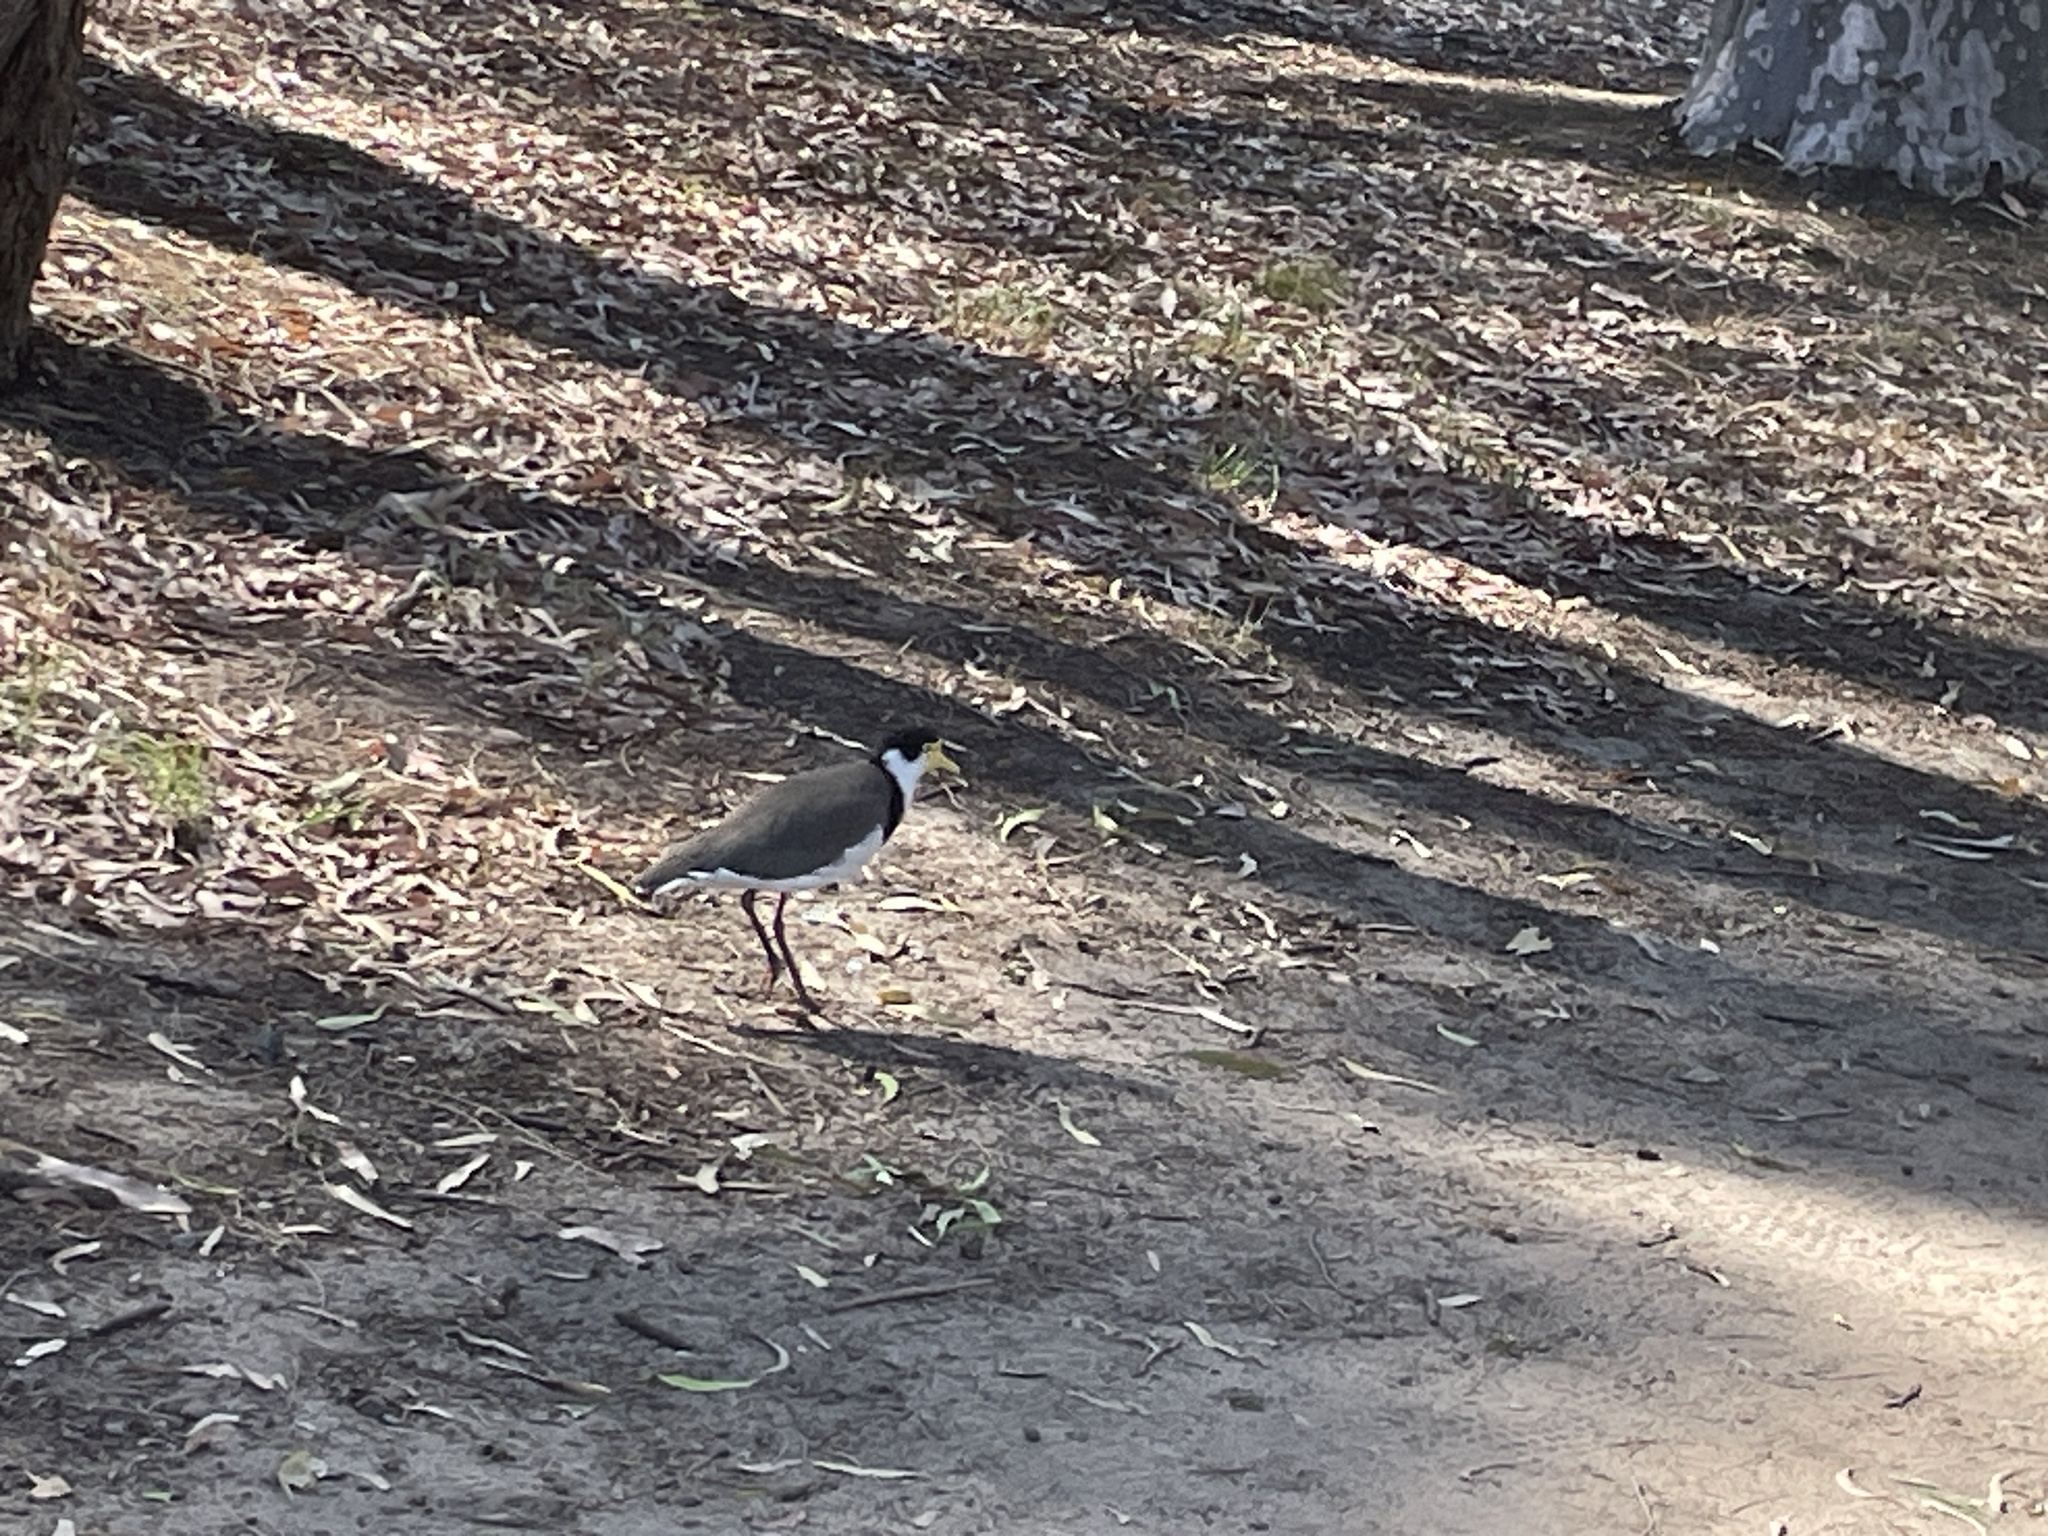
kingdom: Animalia
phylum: Chordata
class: Aves
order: Charadriiformes
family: Charadriidae
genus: Vanellus
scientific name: Vanellus miles
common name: Masked lapwing
